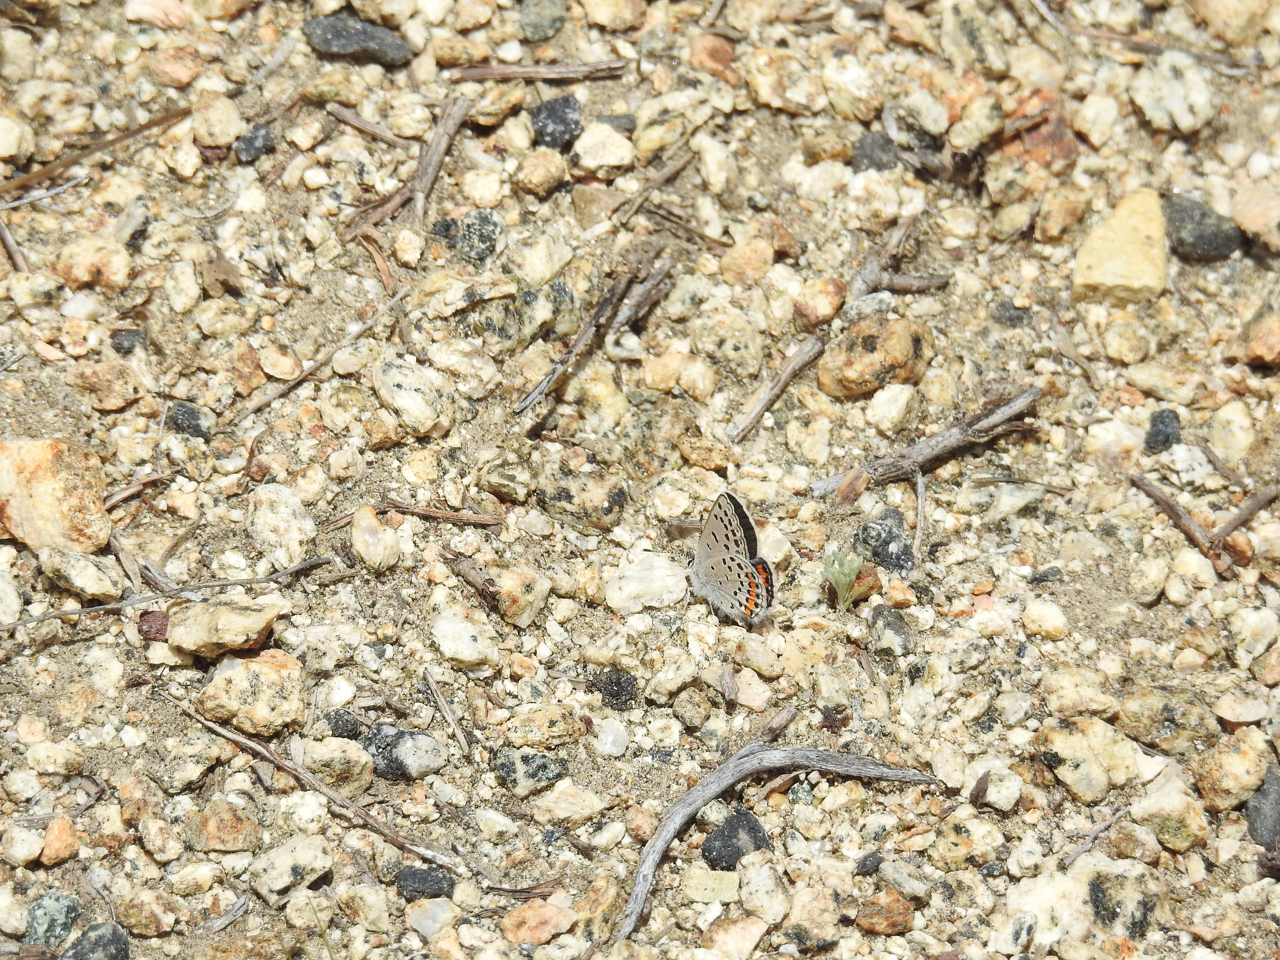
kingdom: Animalia
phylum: Arthropoda
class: Insecta
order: Lepidoptera
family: Lycaenidae
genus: Icaricia
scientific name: Icaricia acmon
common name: Acmon blue
